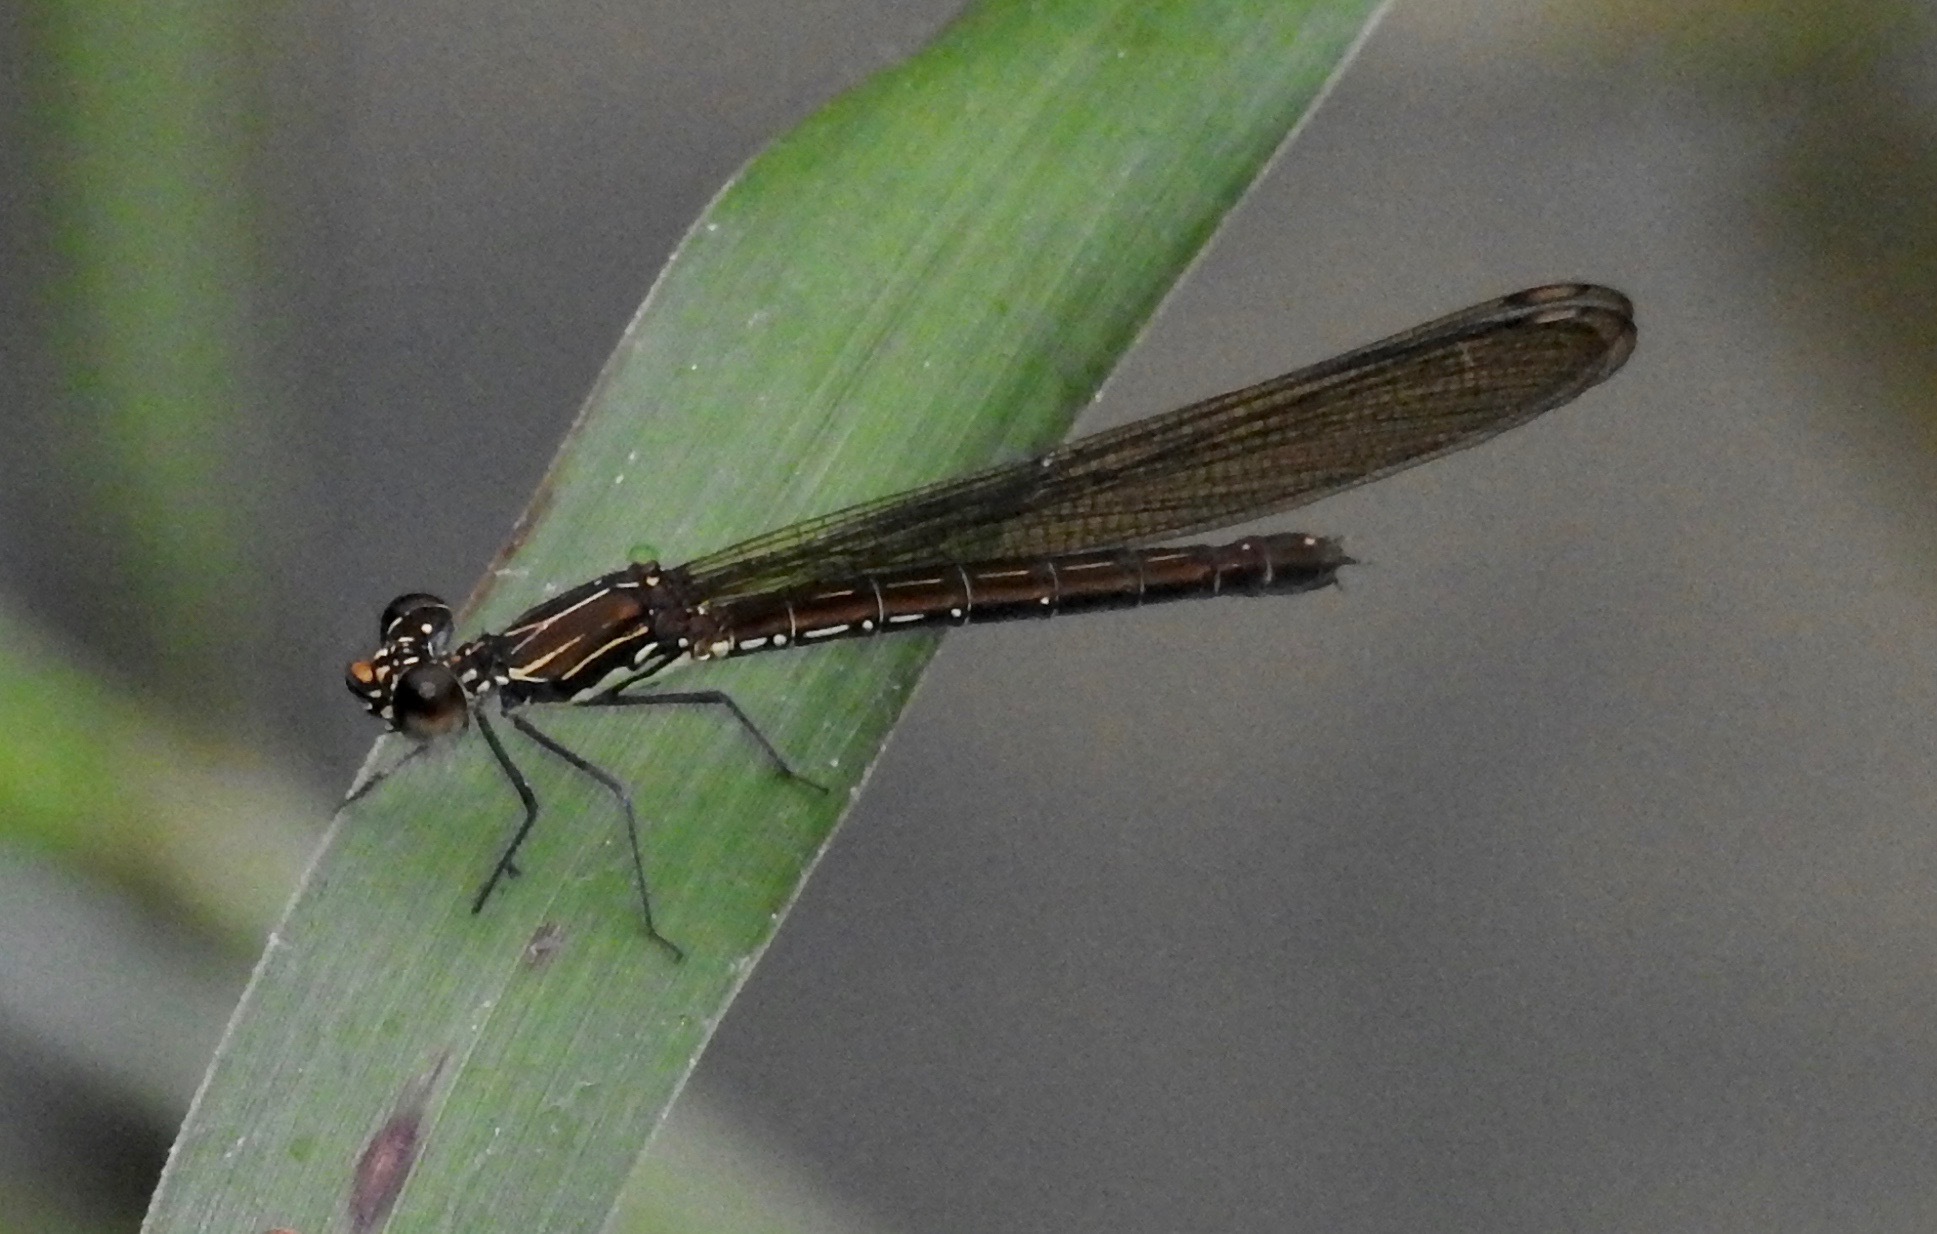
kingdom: Animalia
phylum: Arthropoda
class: Insecta
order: Odonata
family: Chlorocyphidae
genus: Heliocypha
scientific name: Heliocypha biforata
